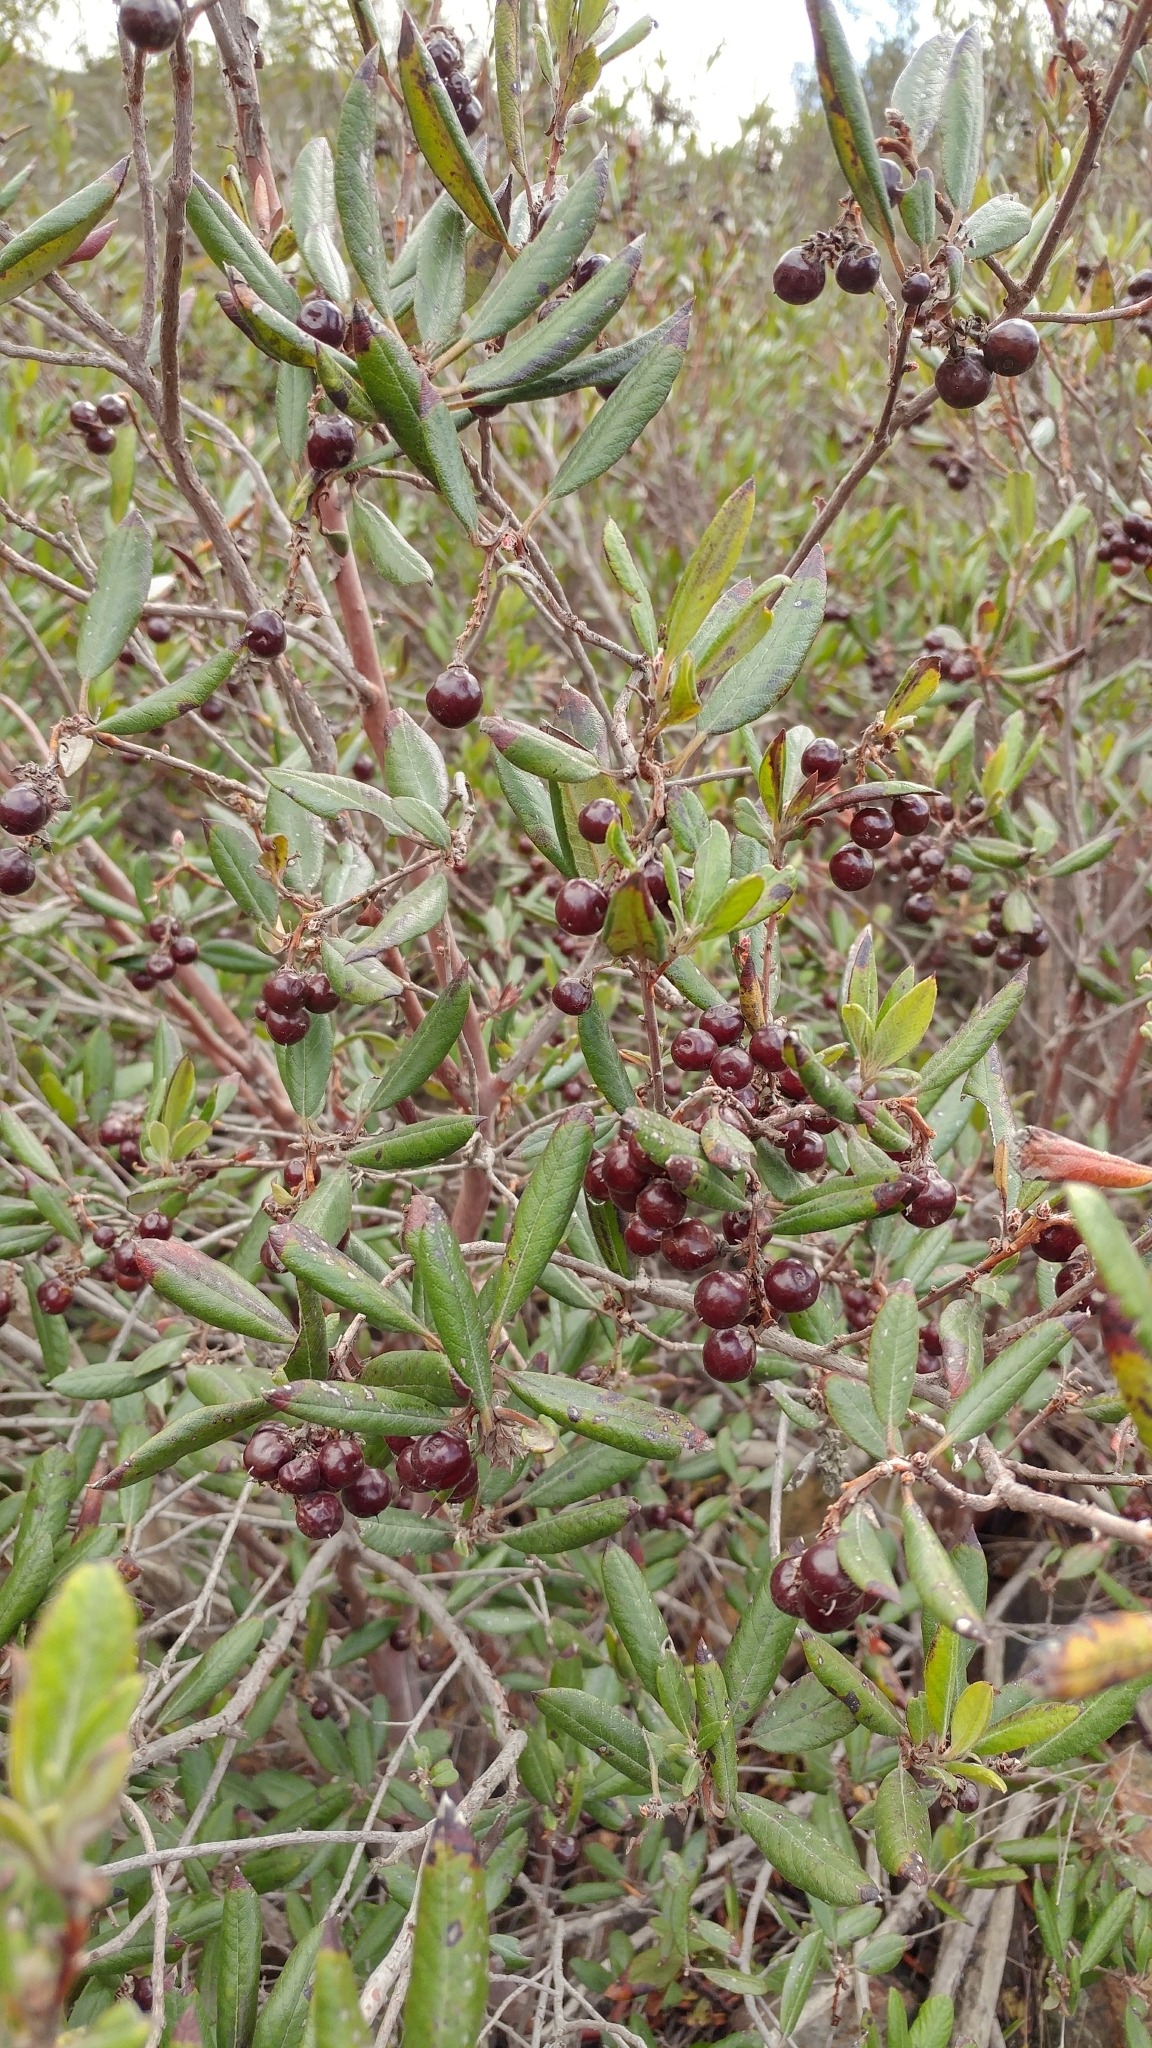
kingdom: Plantae
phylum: Tracheophyta
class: Magnoliopsida
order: Ericales
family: Ericaceae
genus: Arctostaphylos
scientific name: Arctostaphylos bicolor
